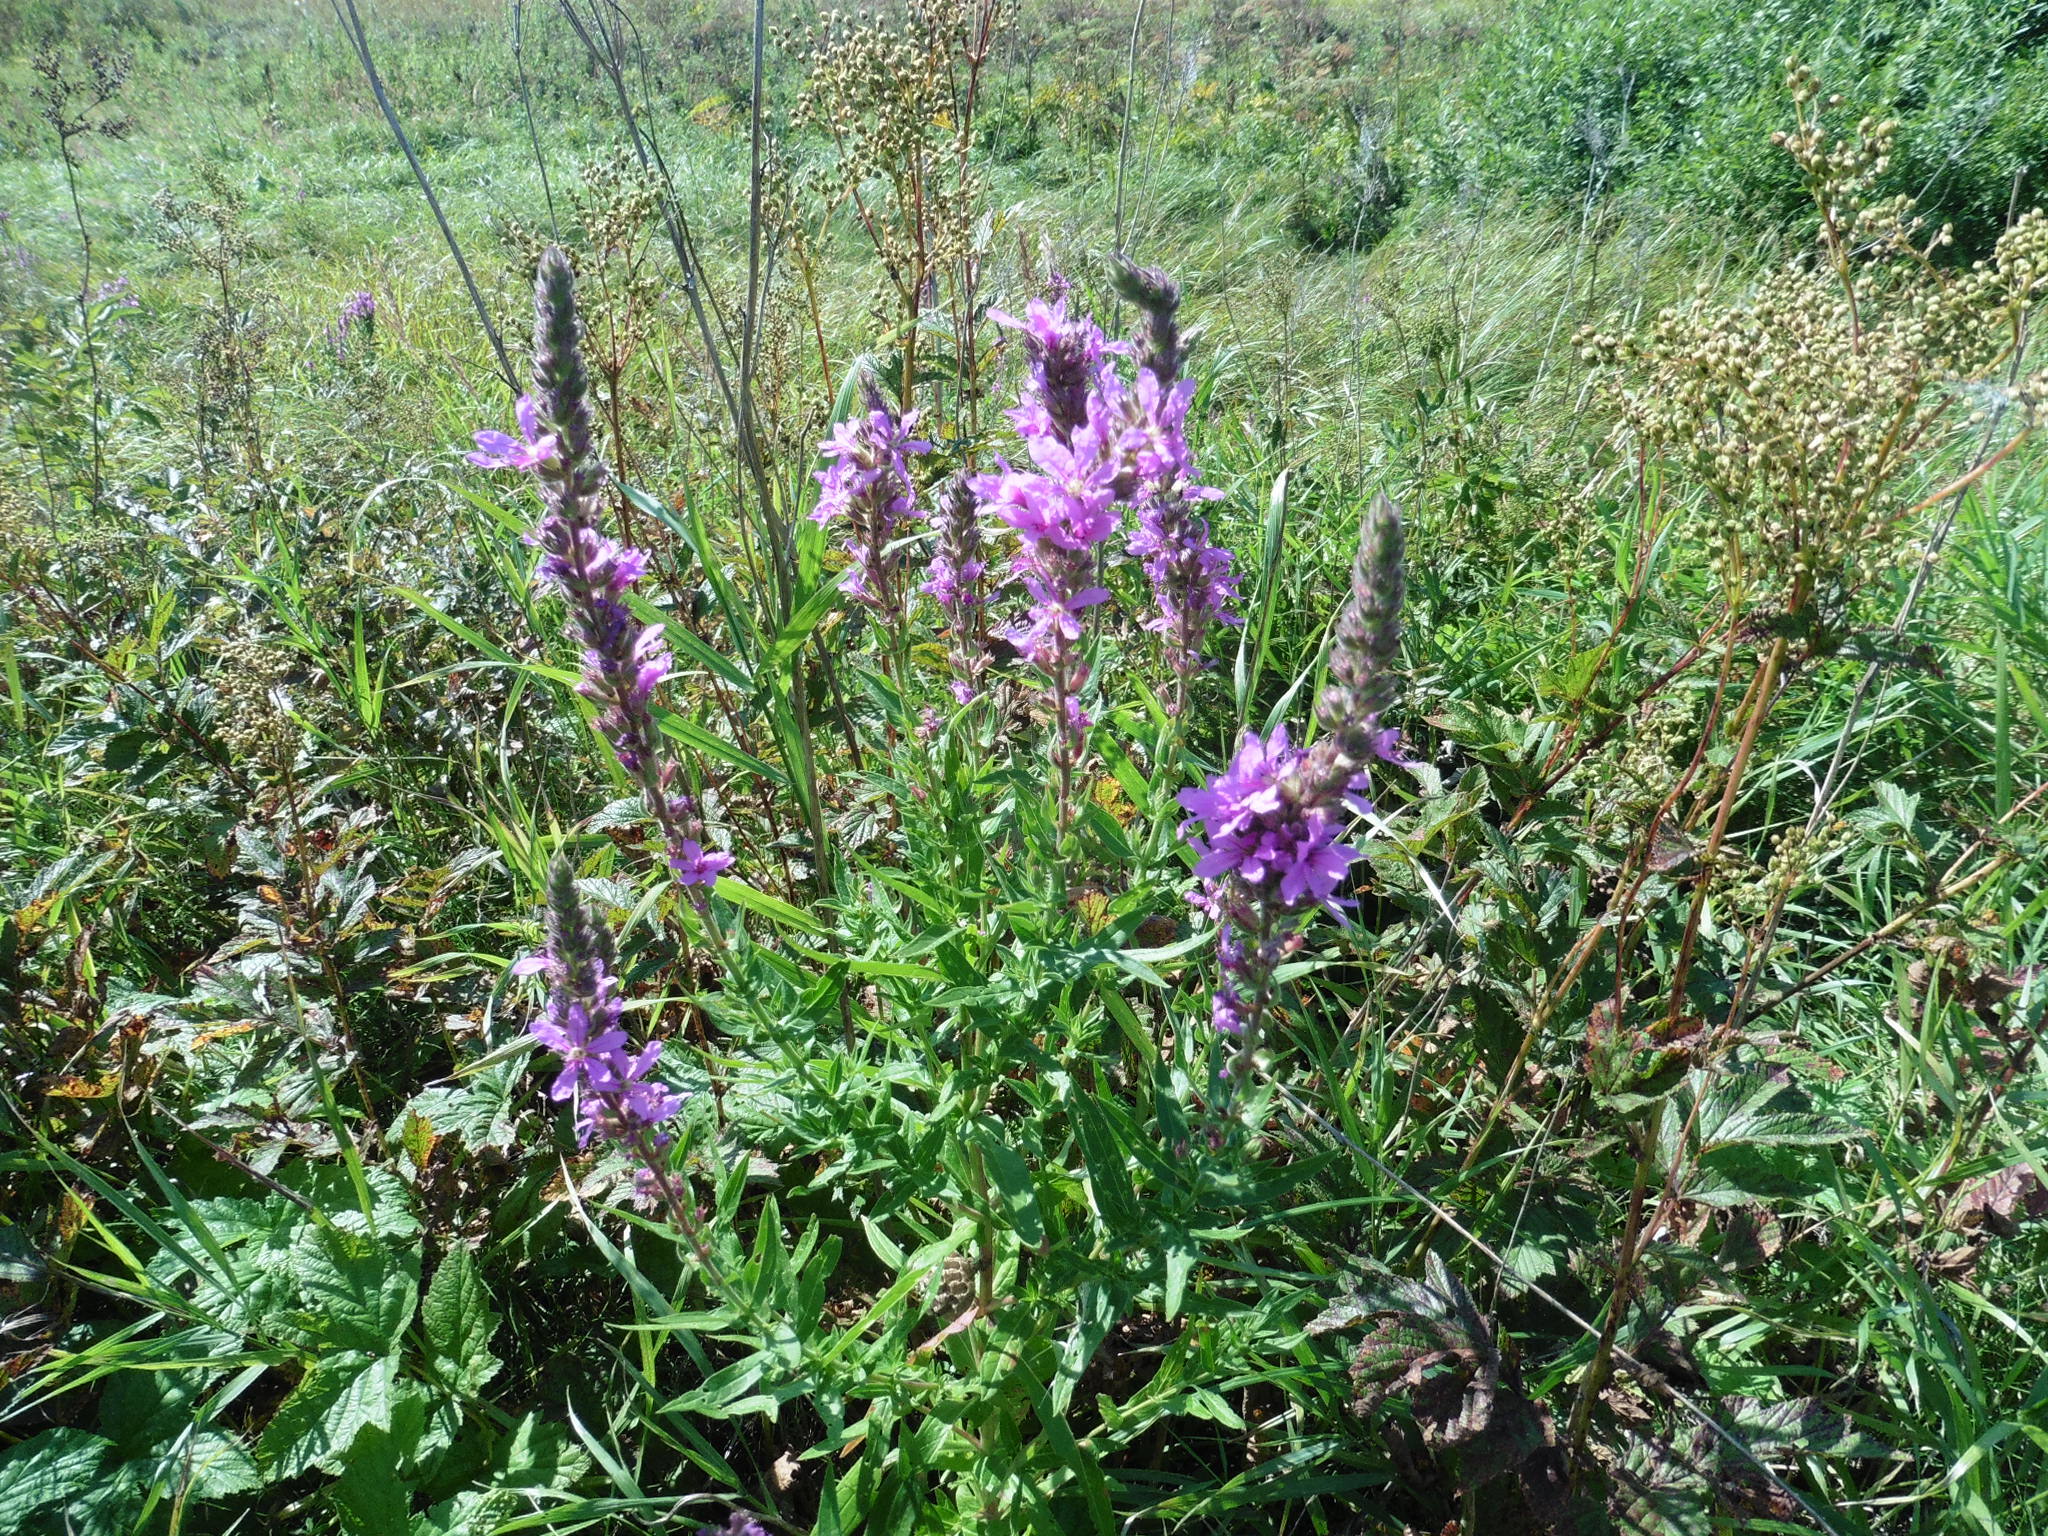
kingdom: Plantae
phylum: Tracheophyta
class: Magnoliopsida
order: Myrtales
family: Lythraceae
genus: Lythrum
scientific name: Lythrum salicaria
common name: Purple loosestrife
